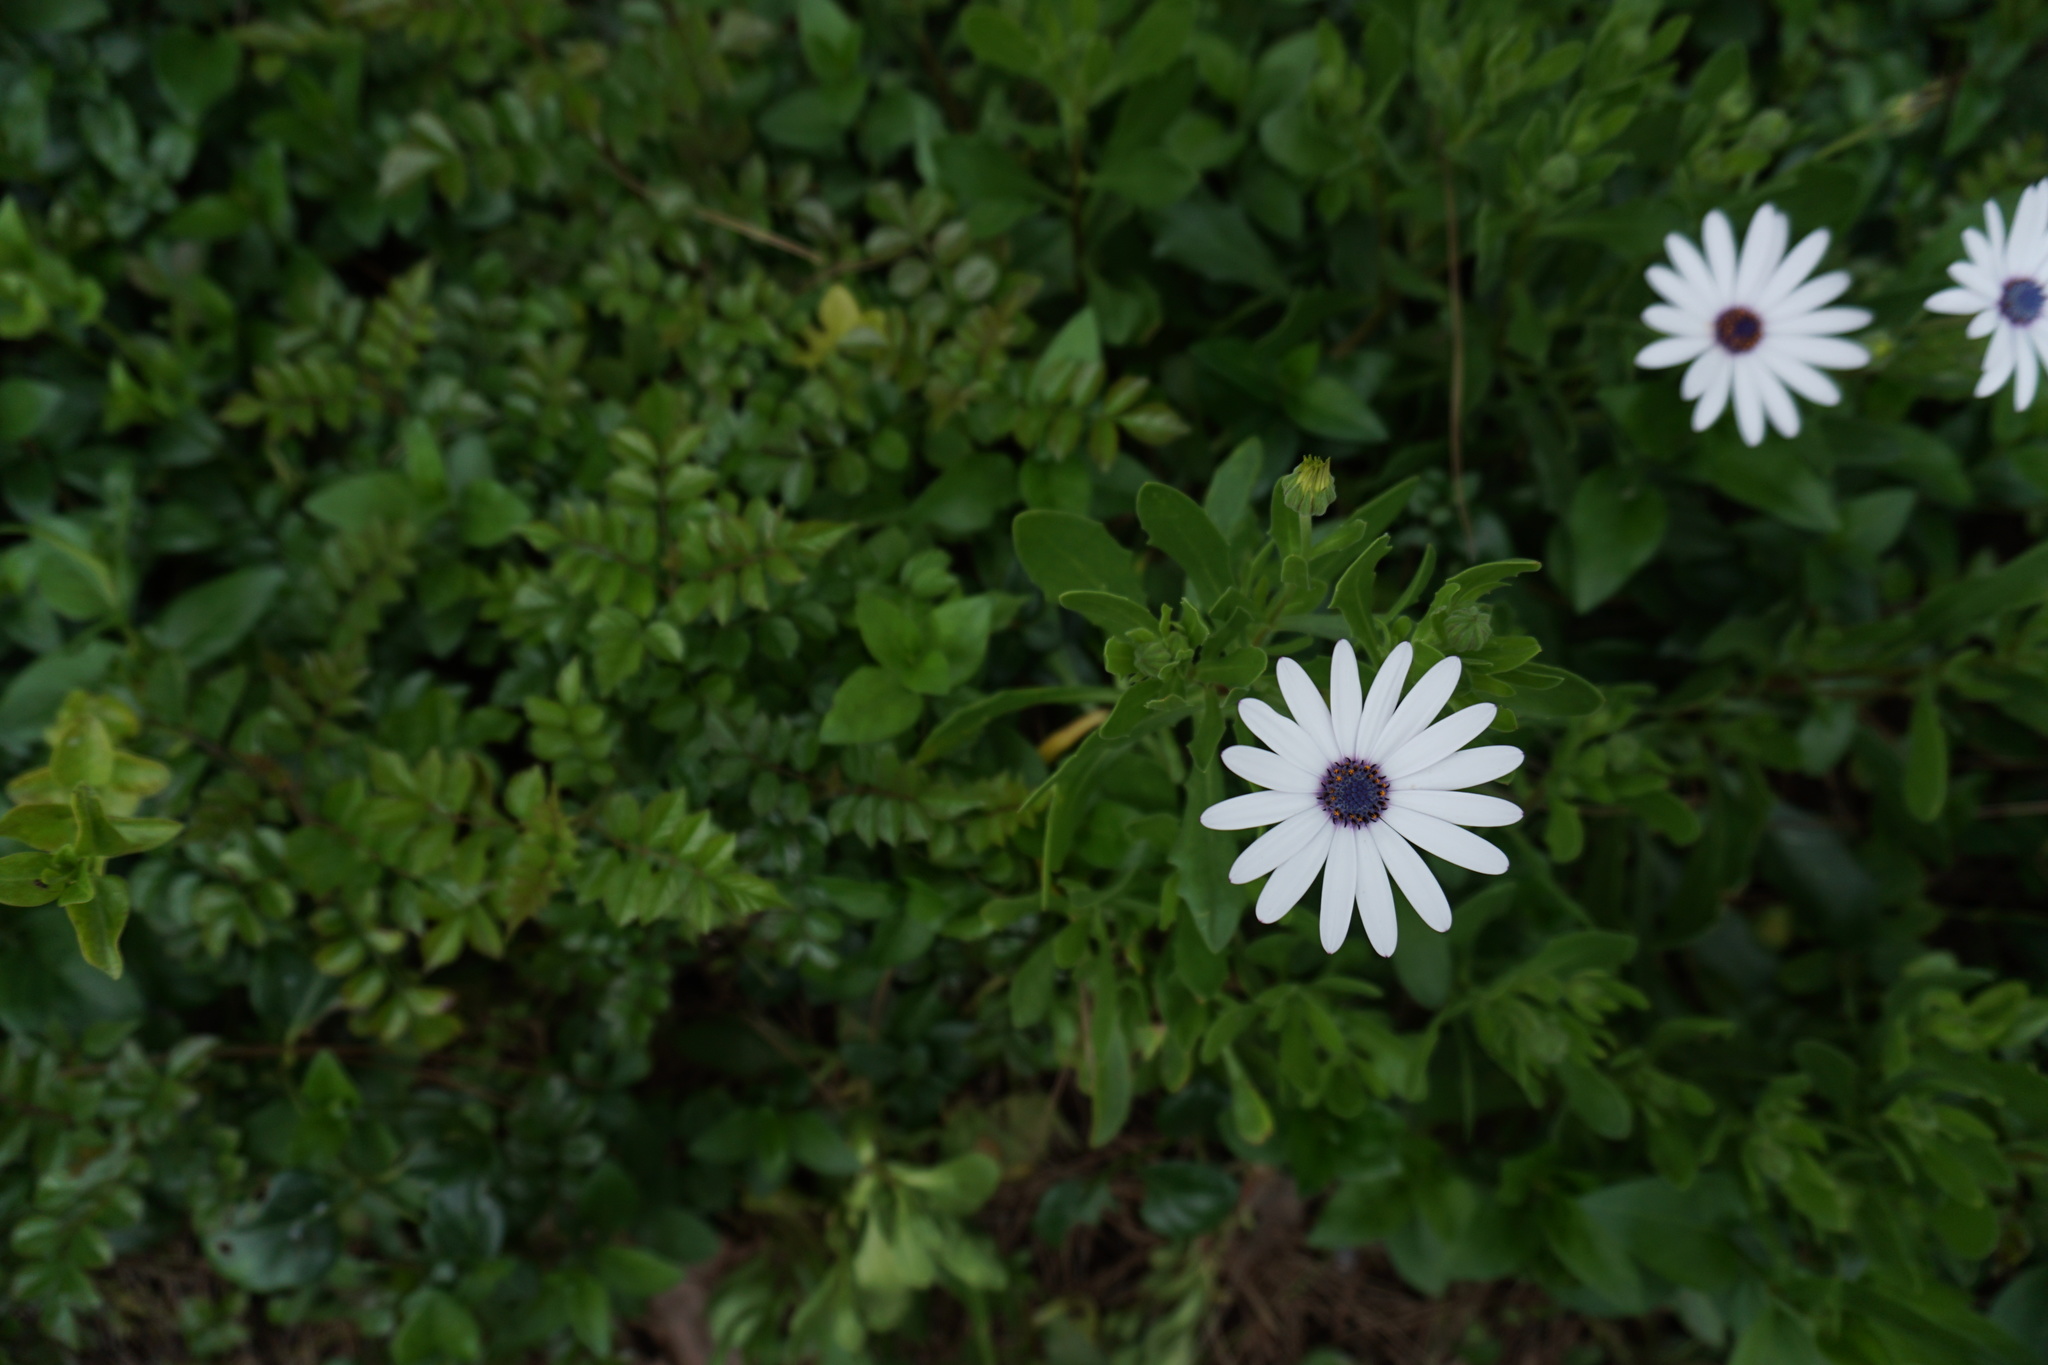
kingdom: Plantae
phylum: Tracheophyta
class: Magnoliopsida
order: Asterales
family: Asteraceae
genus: Dimorphotheca
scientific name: Dimorphotheca fruticosa
